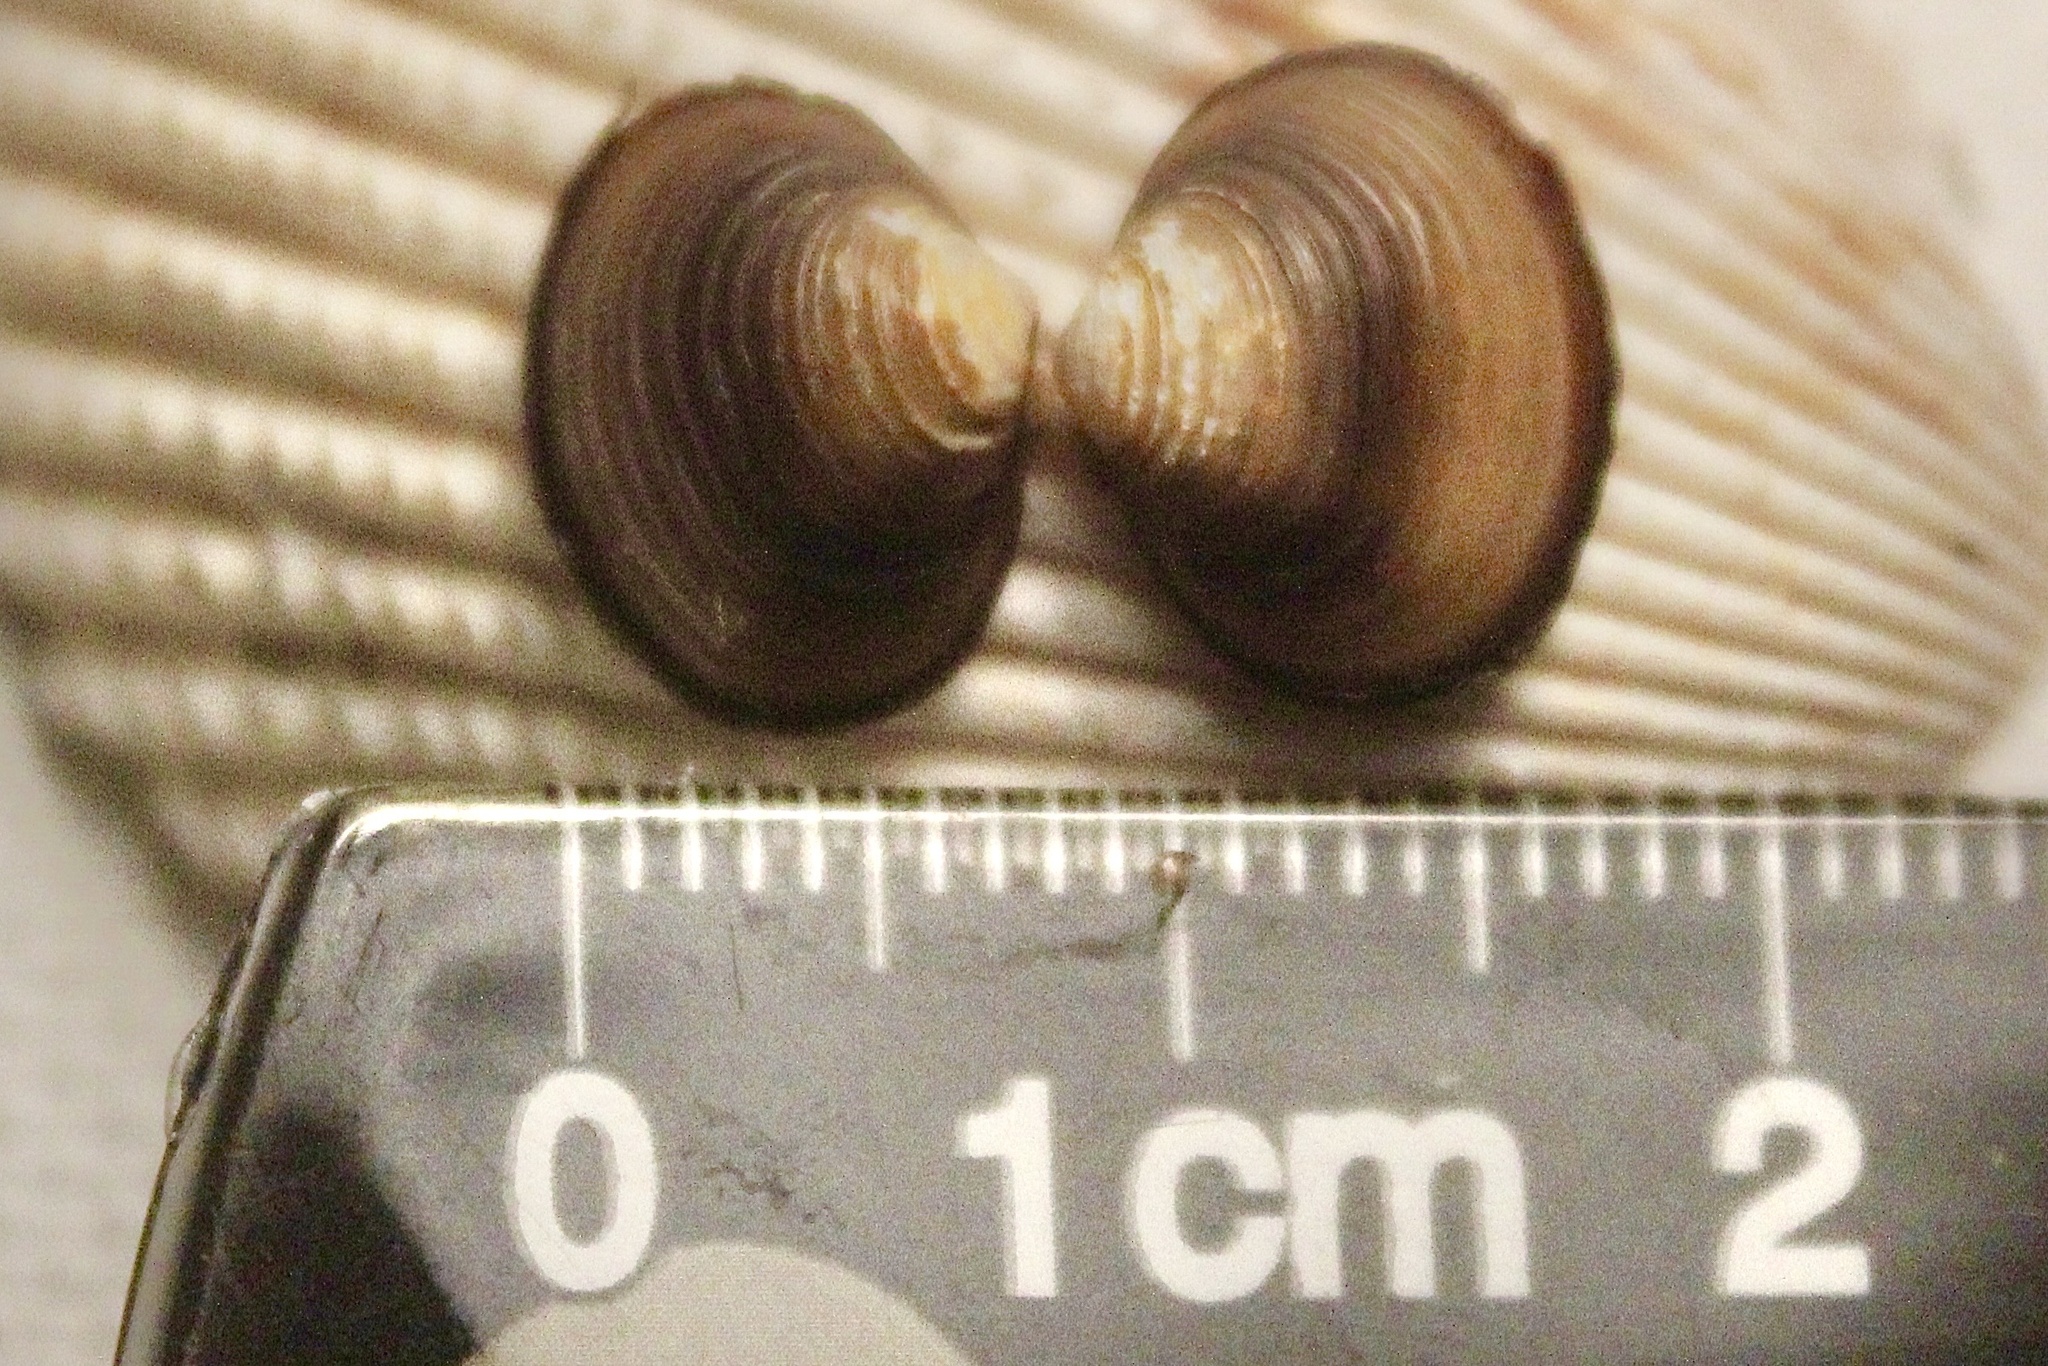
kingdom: Animalia
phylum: Mollusca
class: Bivalvia
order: Venerida
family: Cyrenidae
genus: Corbicula
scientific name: Corbicula fluminea
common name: Asian clam
